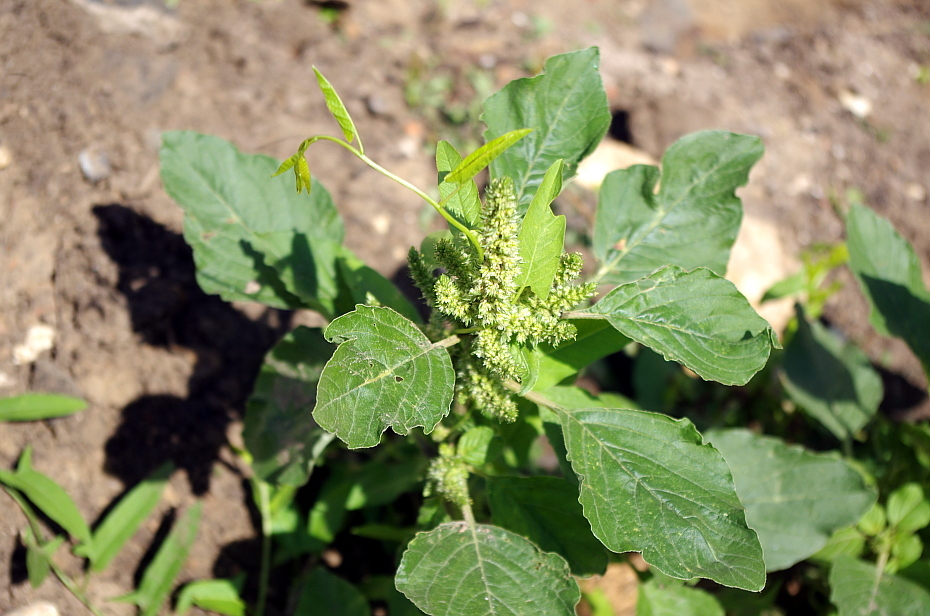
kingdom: Plantae
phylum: Tracheophyta
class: Magnoliopsida
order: Solanales
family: Convolvulaceae
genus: Convolvulus
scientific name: Convolvulus arvensis
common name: Field bindweed
